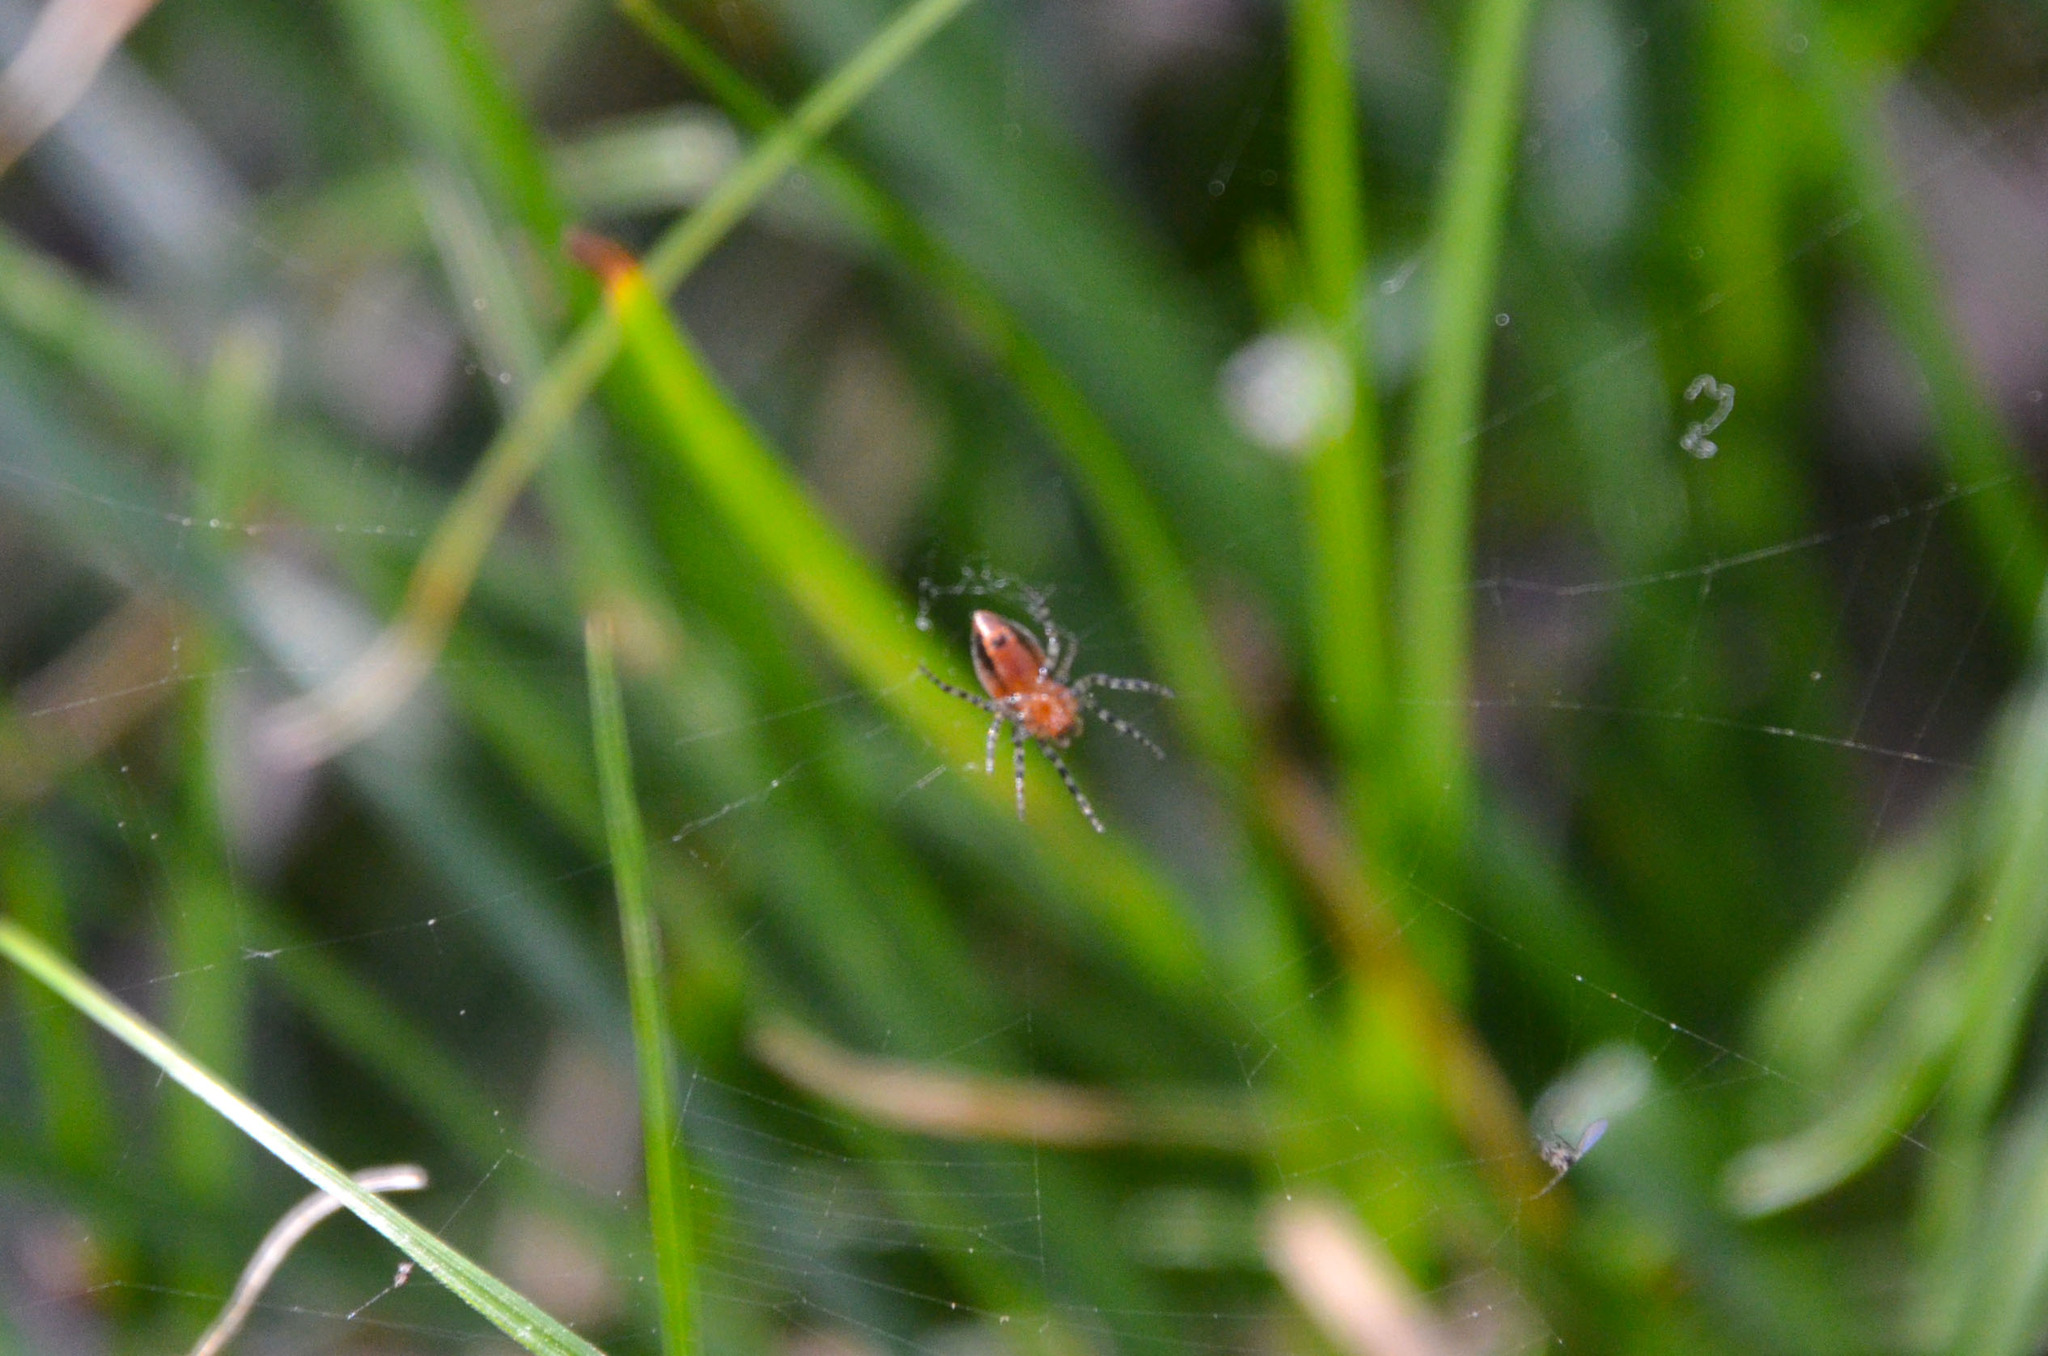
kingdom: Animalia
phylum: Arthropoda
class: Arachnida
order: Araneae
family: Araneidae
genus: Alpaida
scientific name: Alpaida gallardoi
